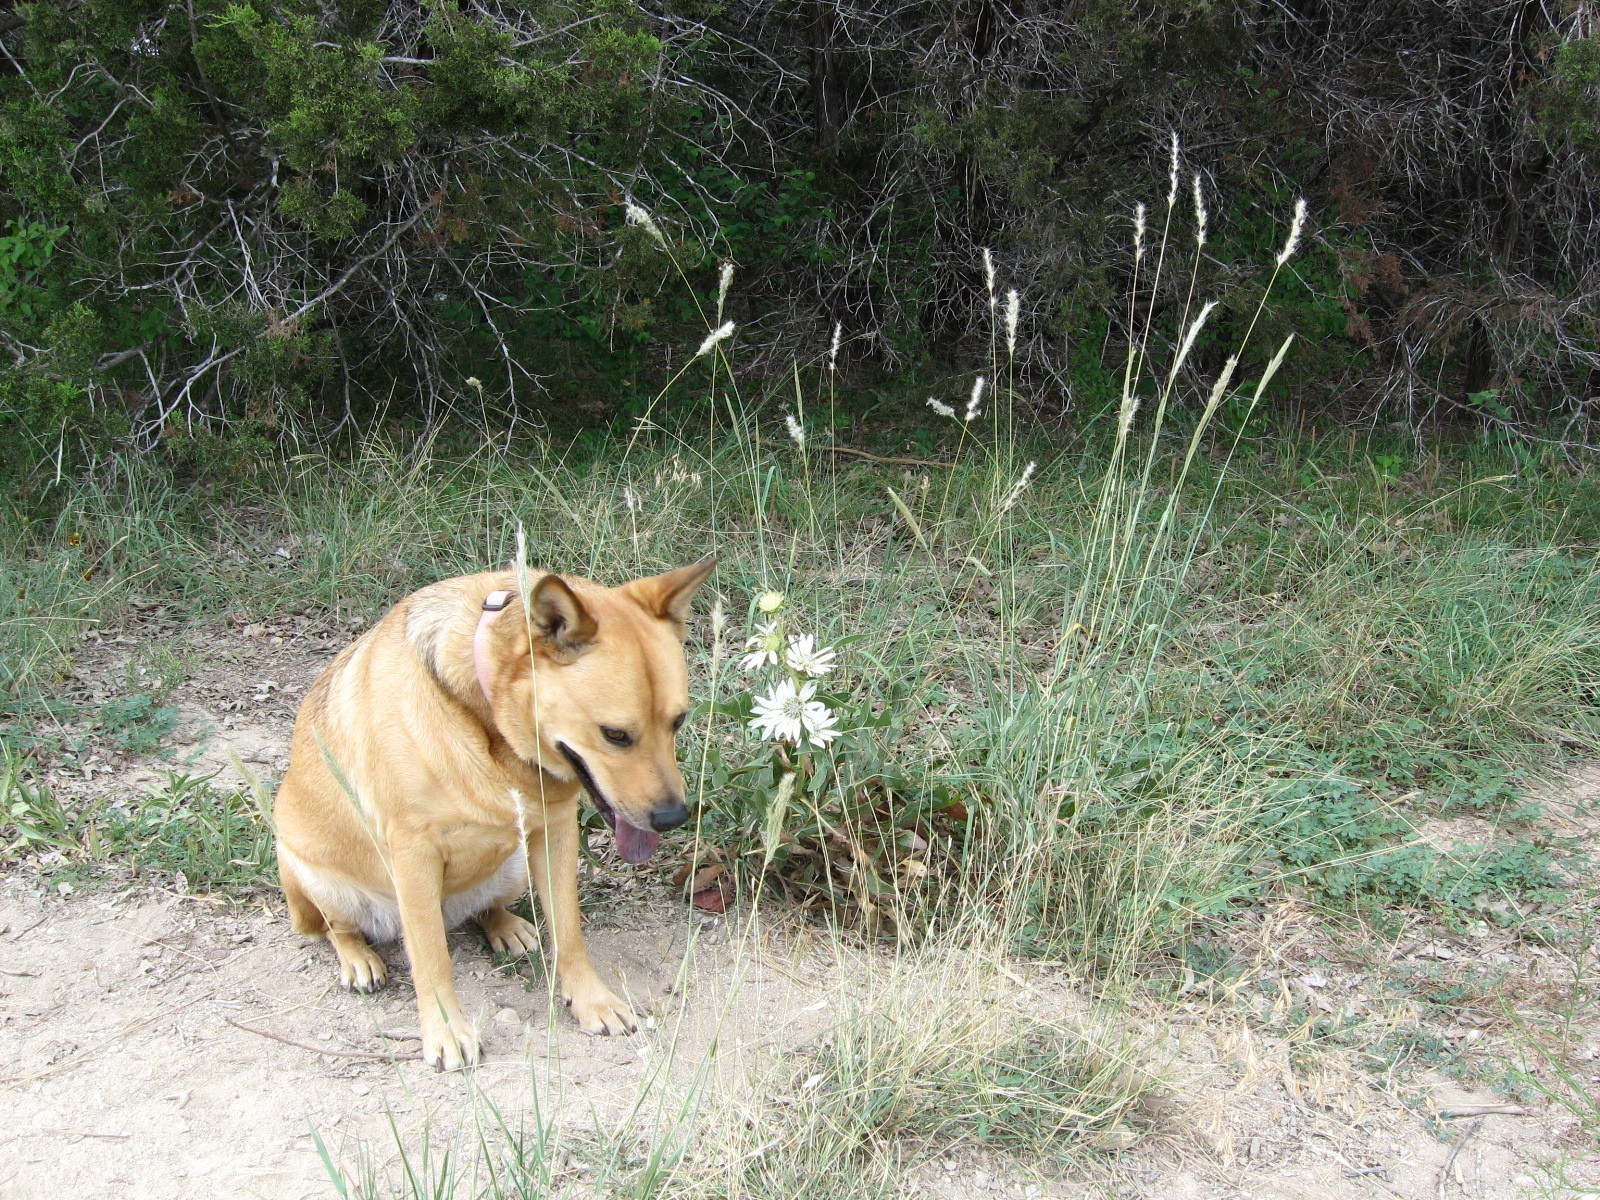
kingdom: Plantae
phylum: Tracheophyta
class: Magnoliopsida
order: Asterales
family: Asteraceae
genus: Silphium
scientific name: Silphium albiflorum
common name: White rosinweed
